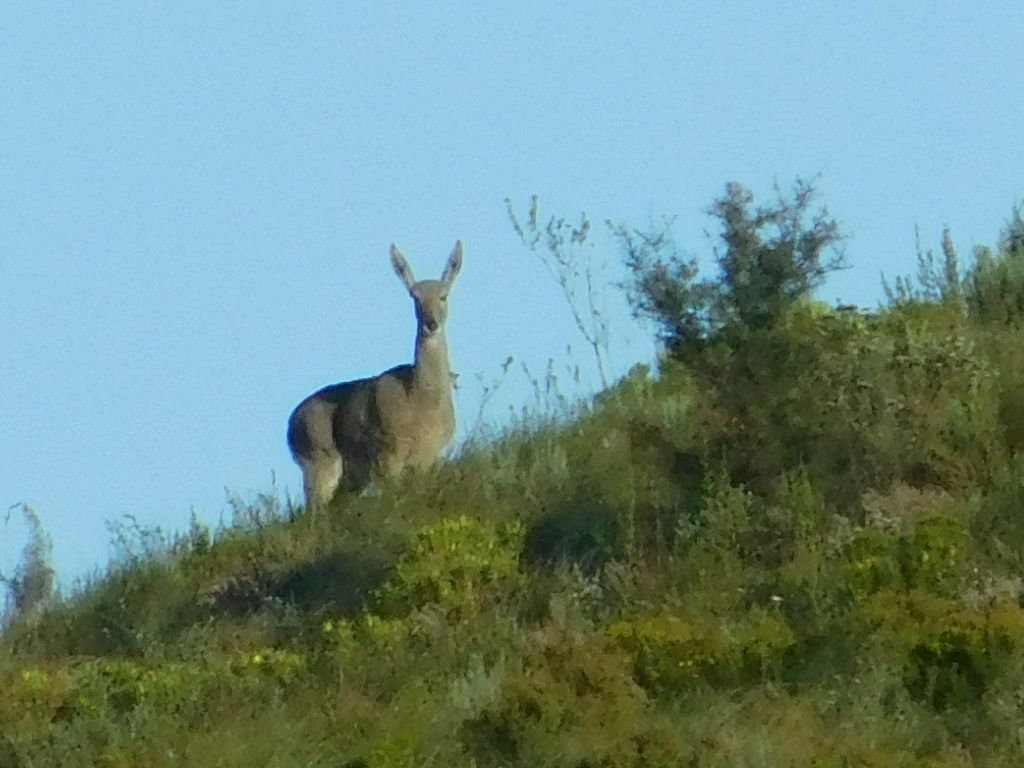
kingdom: Animalia
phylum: Chordata
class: Mammalia
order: Artiodactyla
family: Bovidae
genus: Pelea
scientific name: Pelea capreolus
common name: Common rhebok
